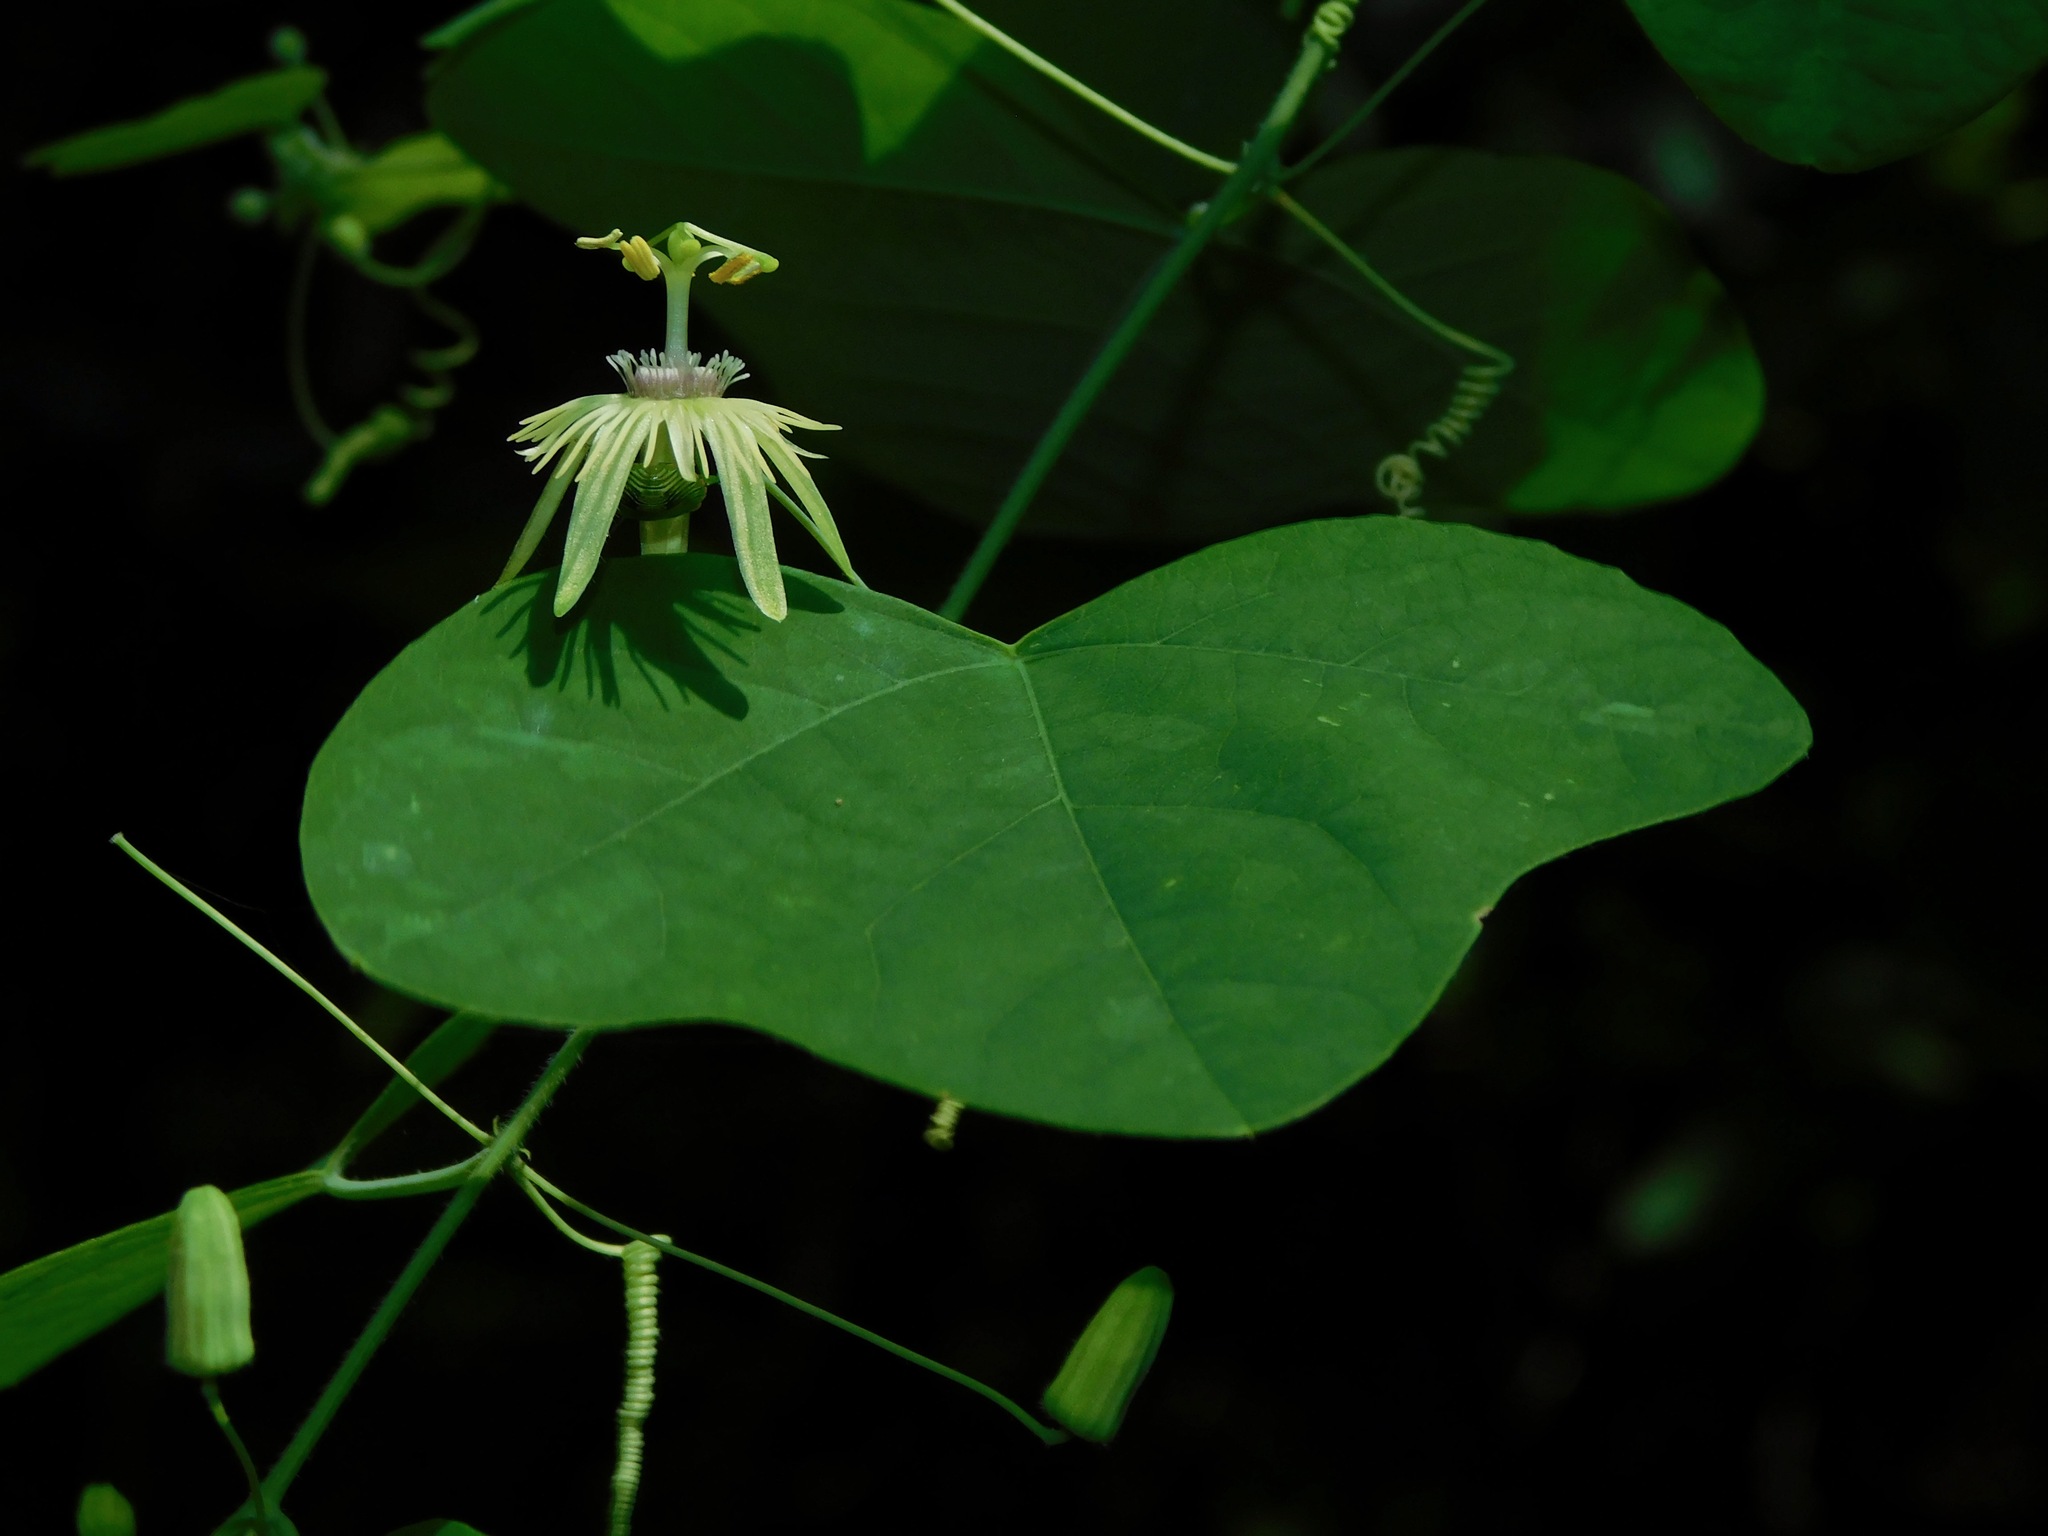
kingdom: Plantae
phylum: Tracheophyta
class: Magnoliopsida
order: Malpighiales
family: Passifloraceae
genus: Passiflora
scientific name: Passiflora lutea
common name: Yellow passionflower
